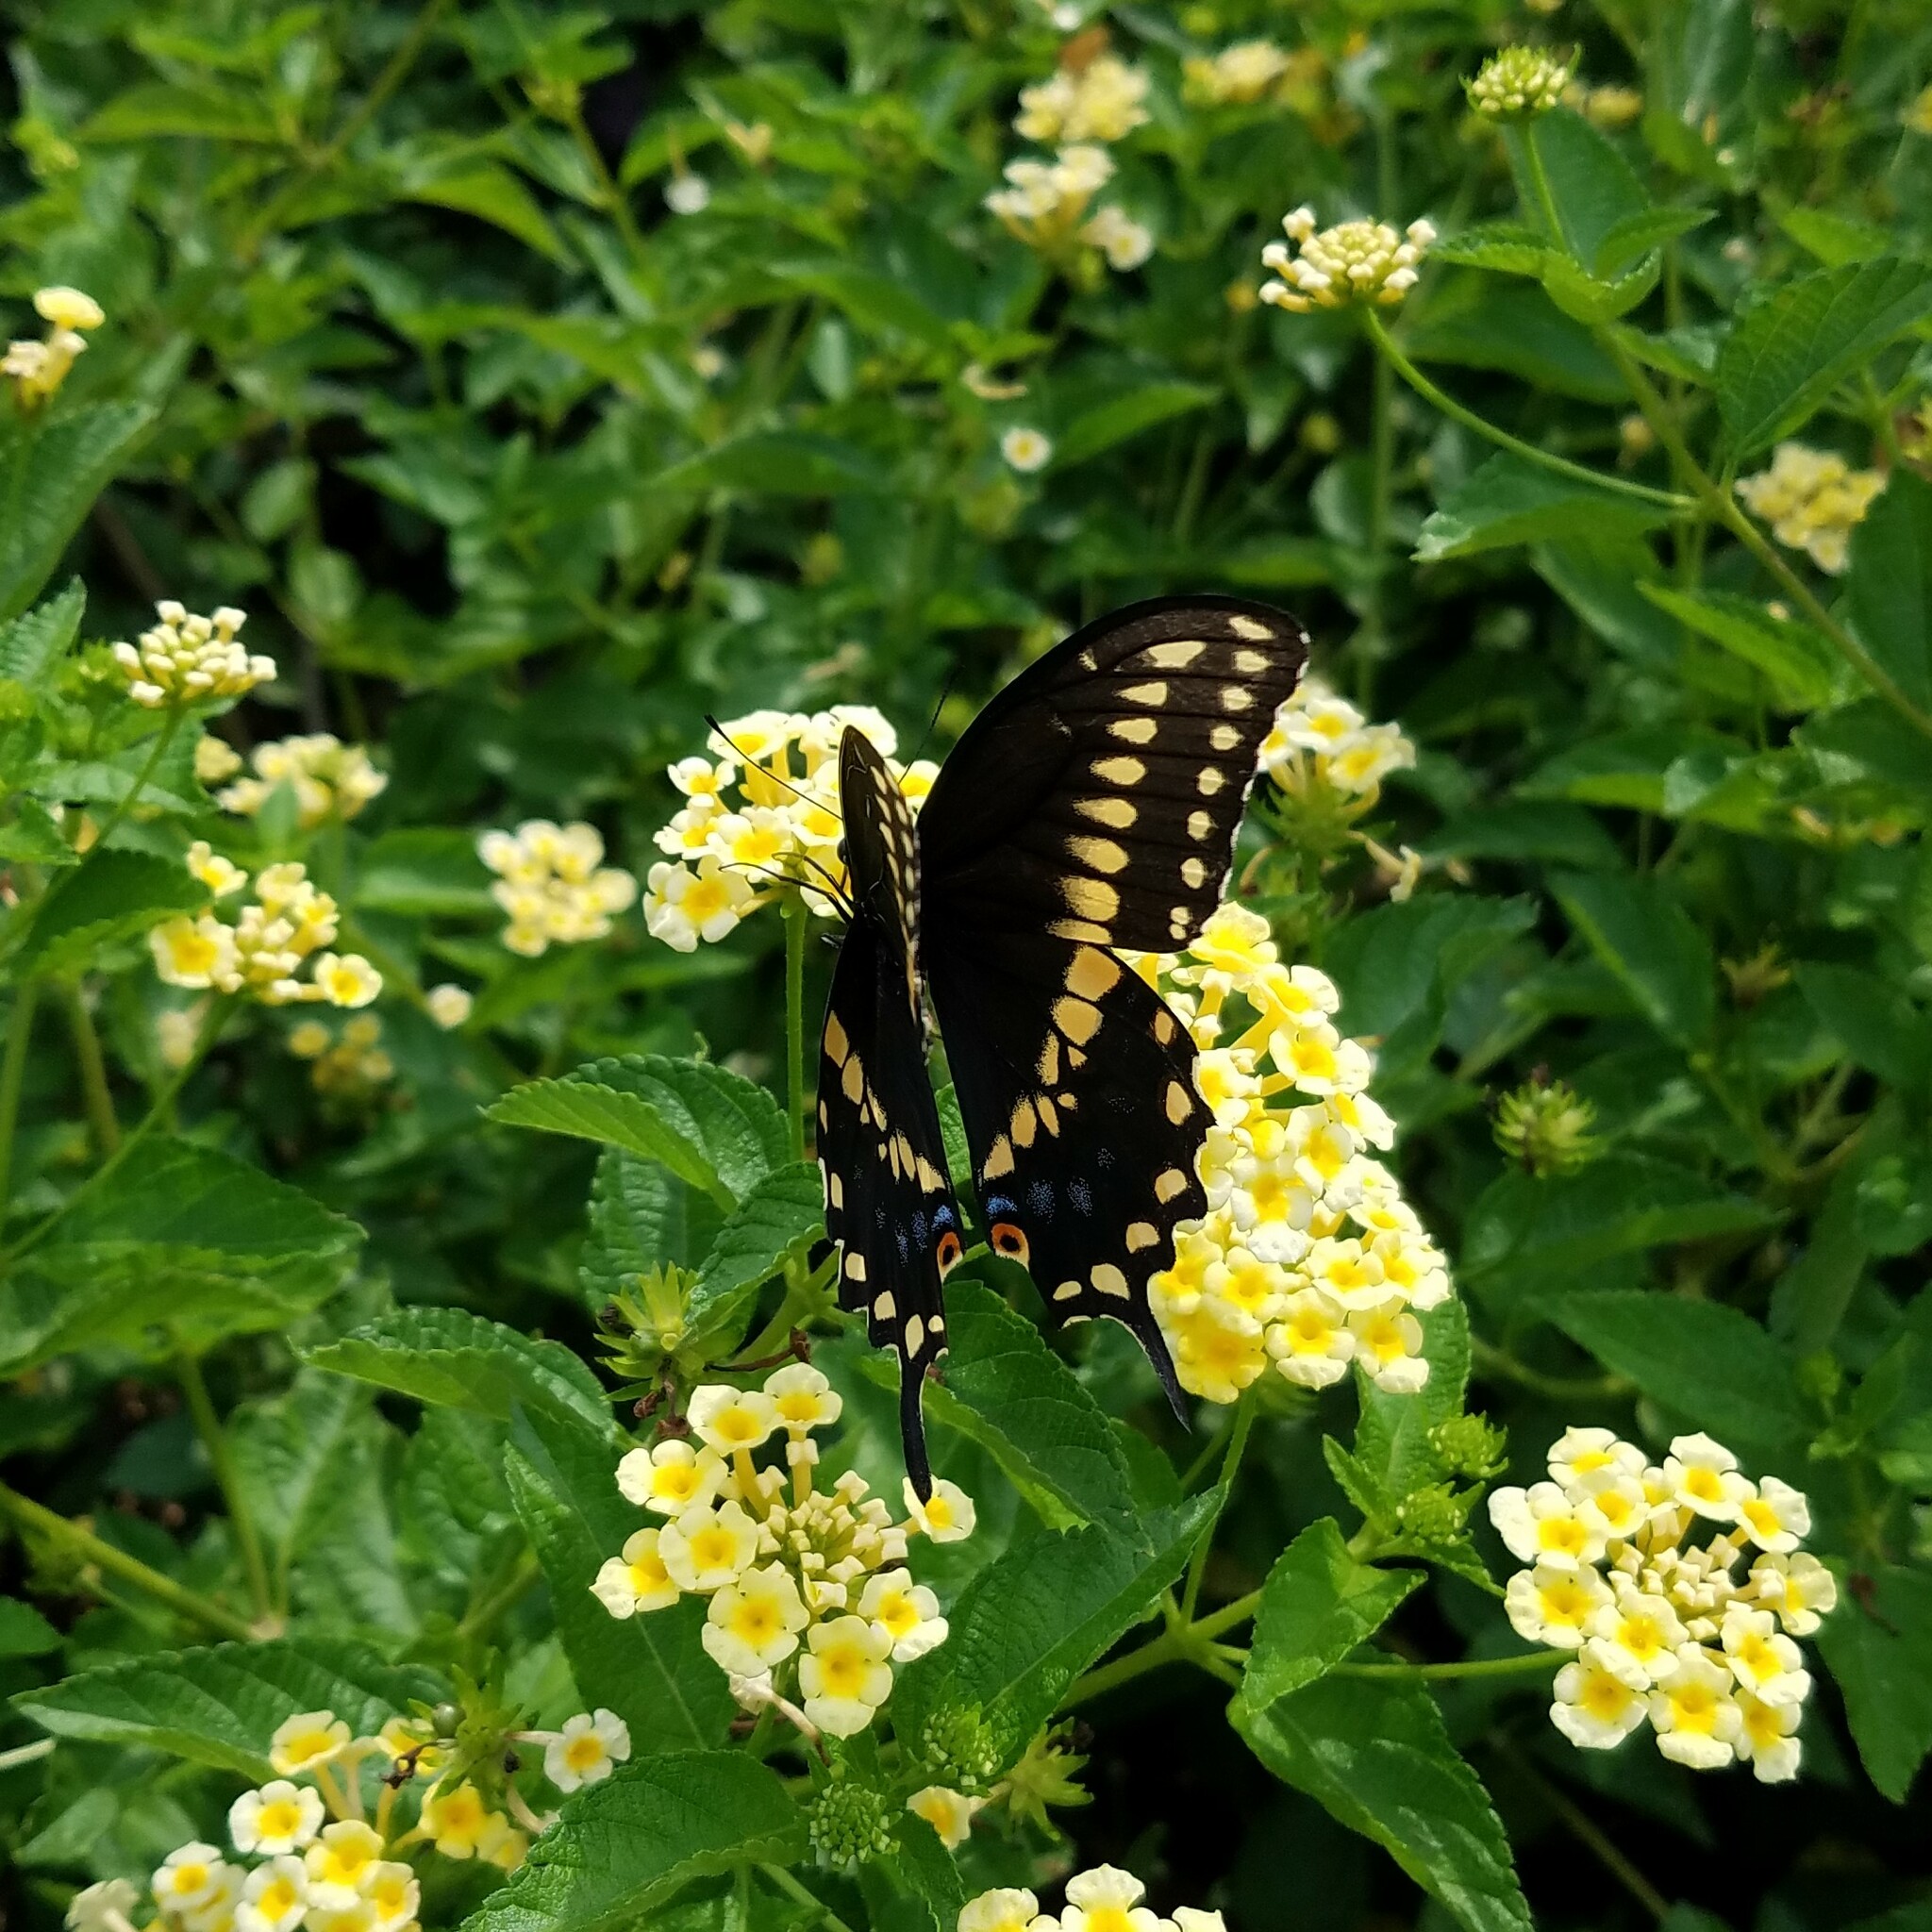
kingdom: Animalia
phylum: Arthropoda
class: Insecta
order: Lepidoptera
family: Papilionidae
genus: Papilio
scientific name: Papilio polyxenes
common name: Black swallowtail
